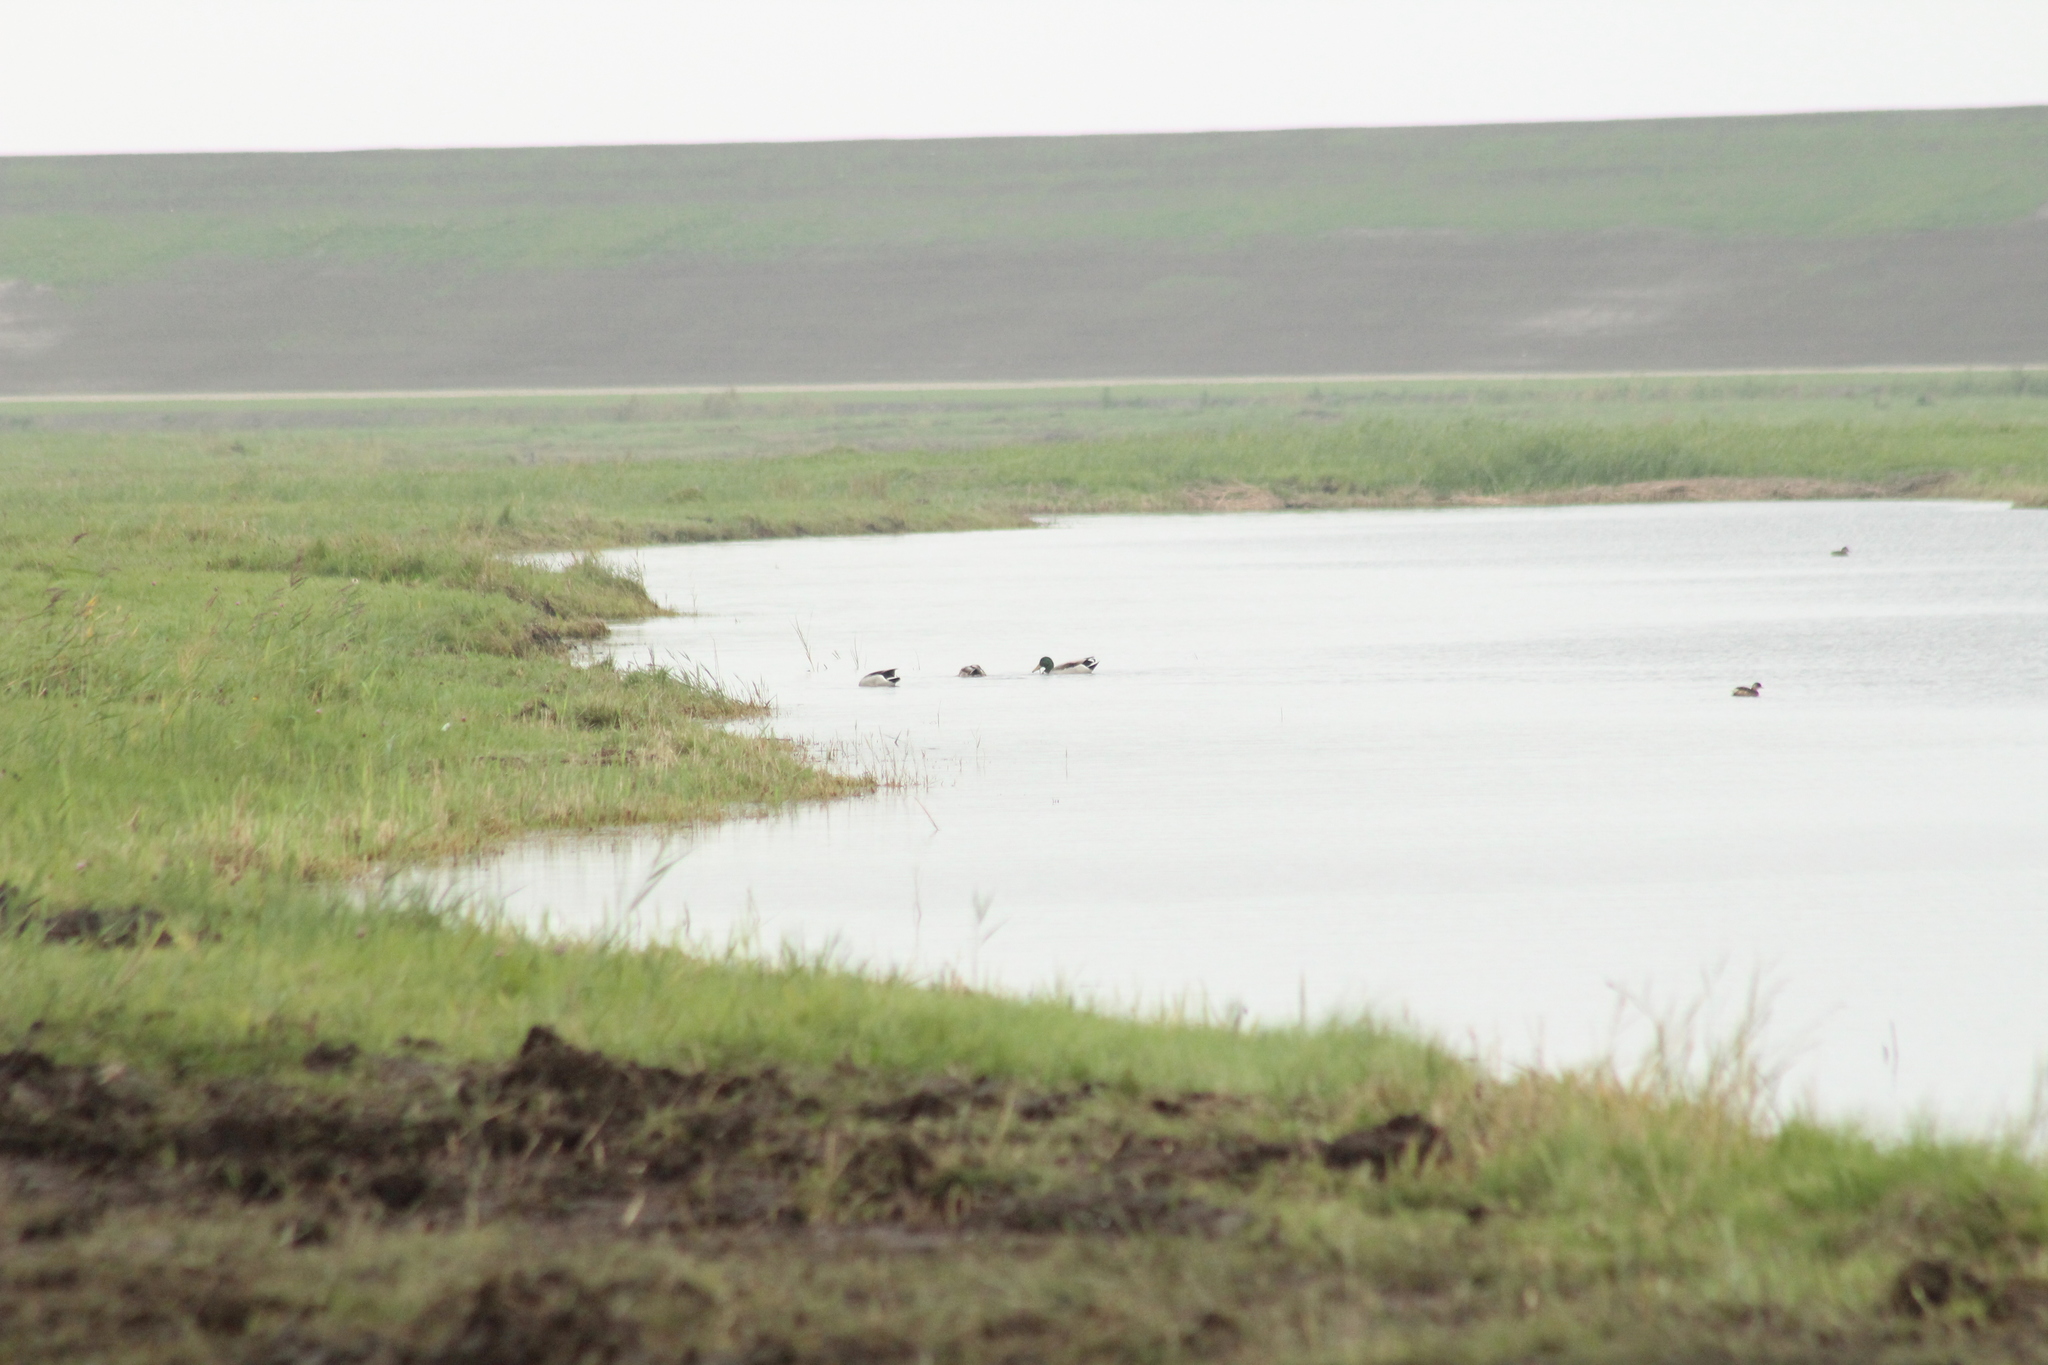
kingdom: Animalia
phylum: Chordata
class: Aves
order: Anseriformes
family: Anatidae
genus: Anas
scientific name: Anas platyrhynchos
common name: Mallard
